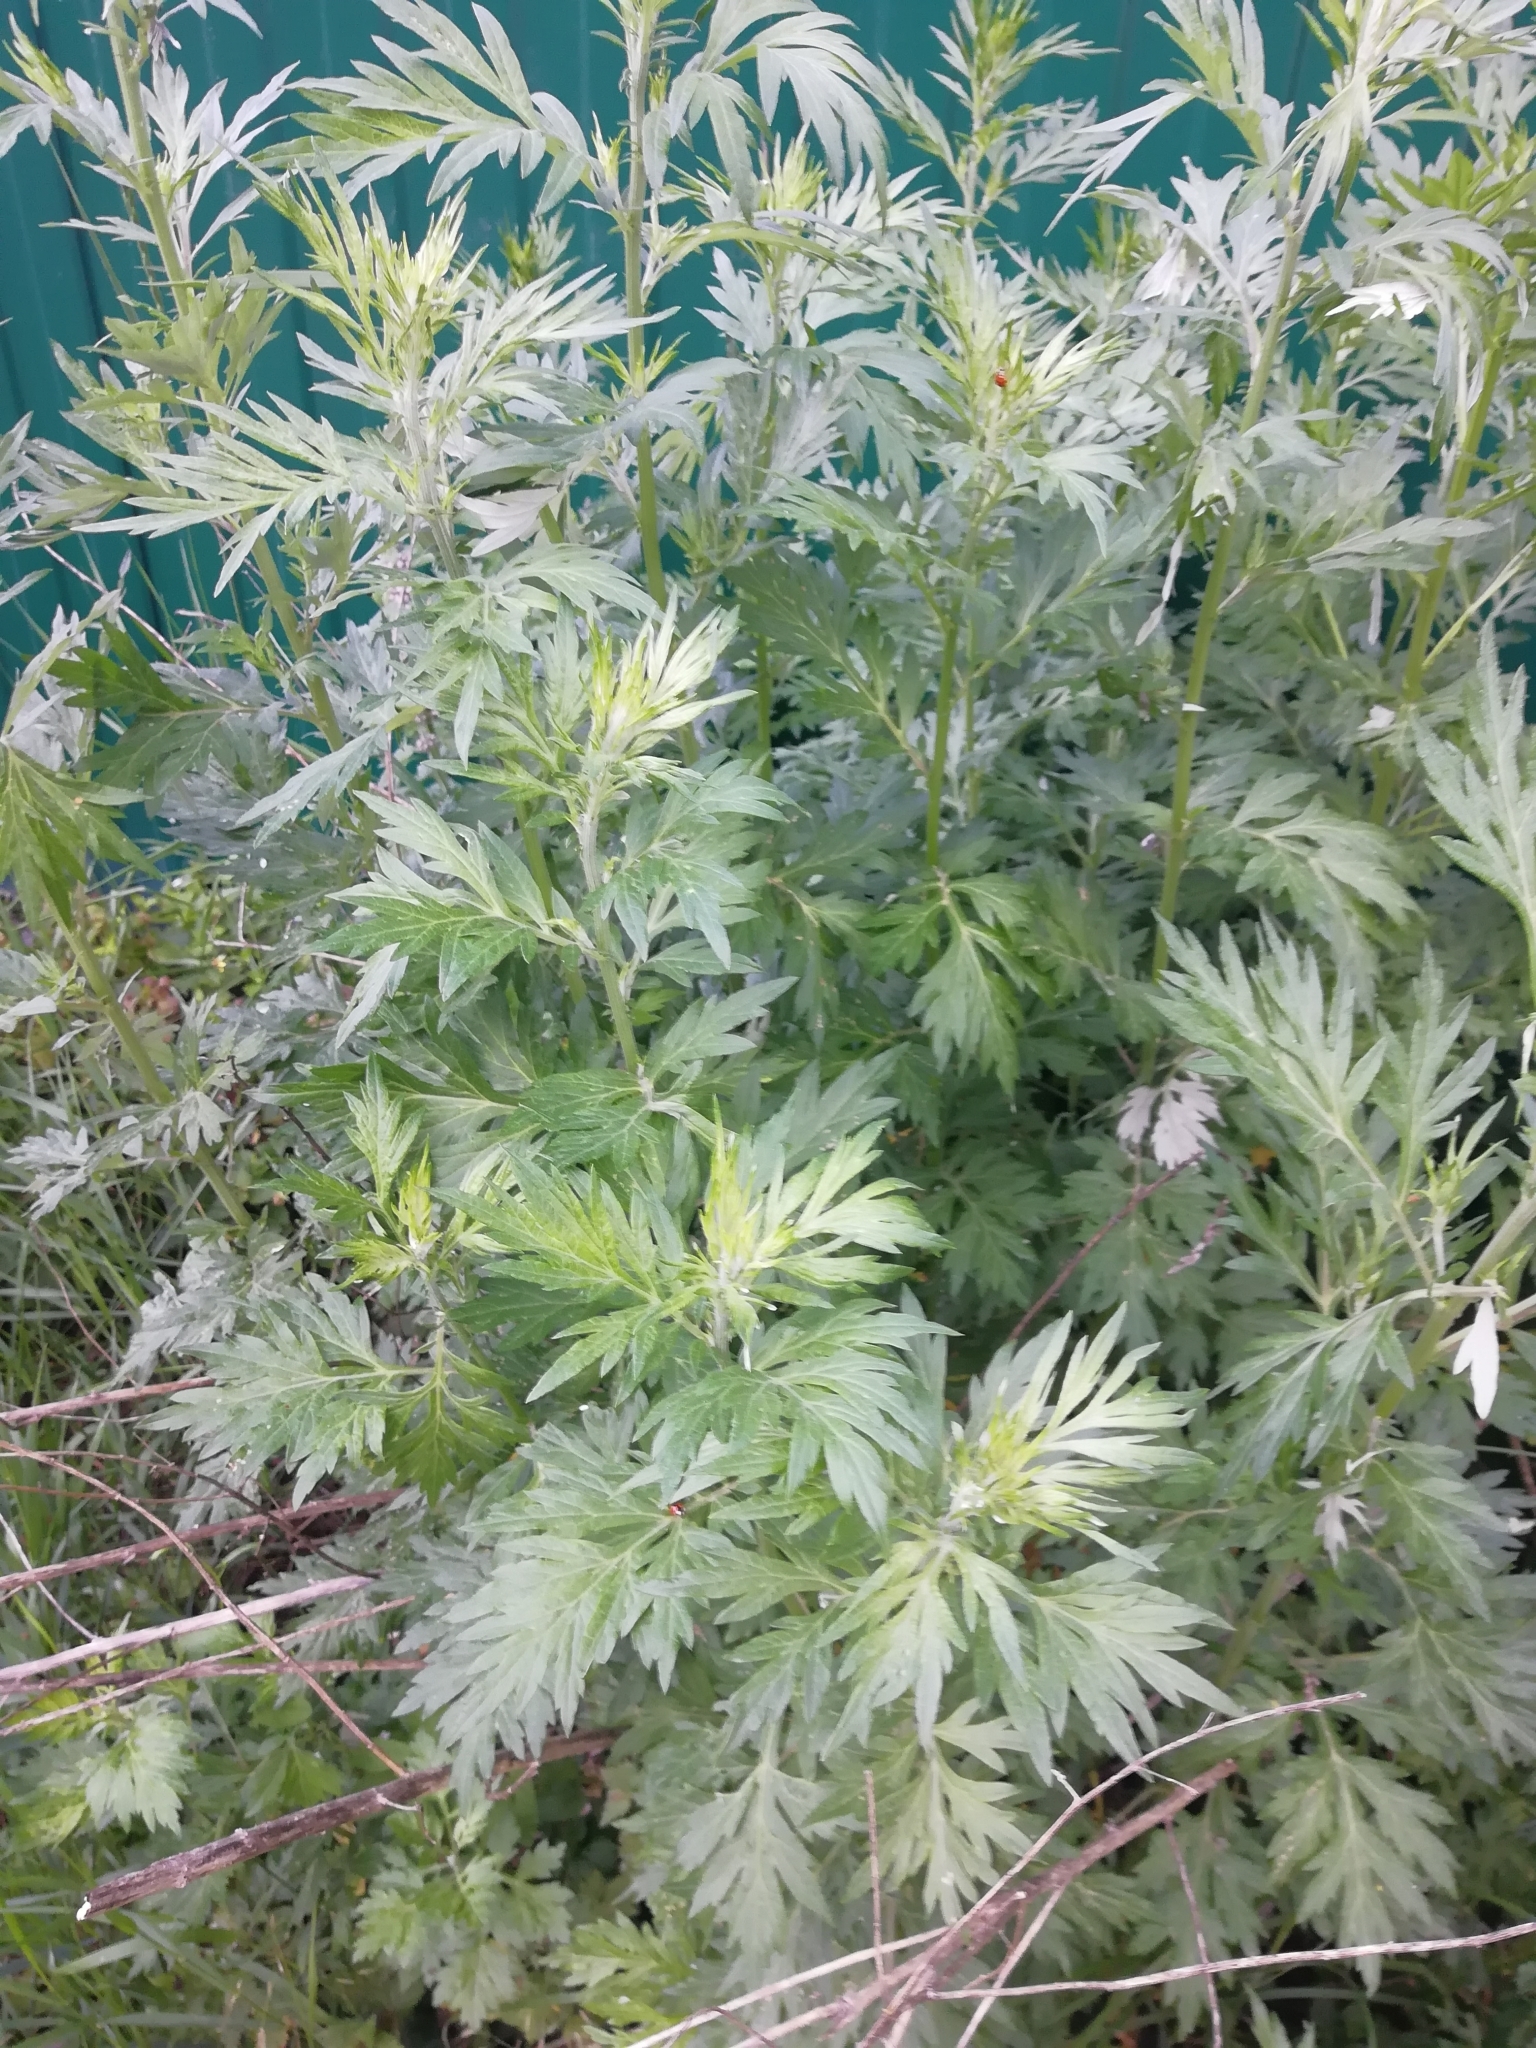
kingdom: Plantae
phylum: Tracheophyta
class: Magnoliopsida
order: Asterales
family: Asteraceae
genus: Artemisia
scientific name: Artemisia vulgaris
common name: Mugwort
